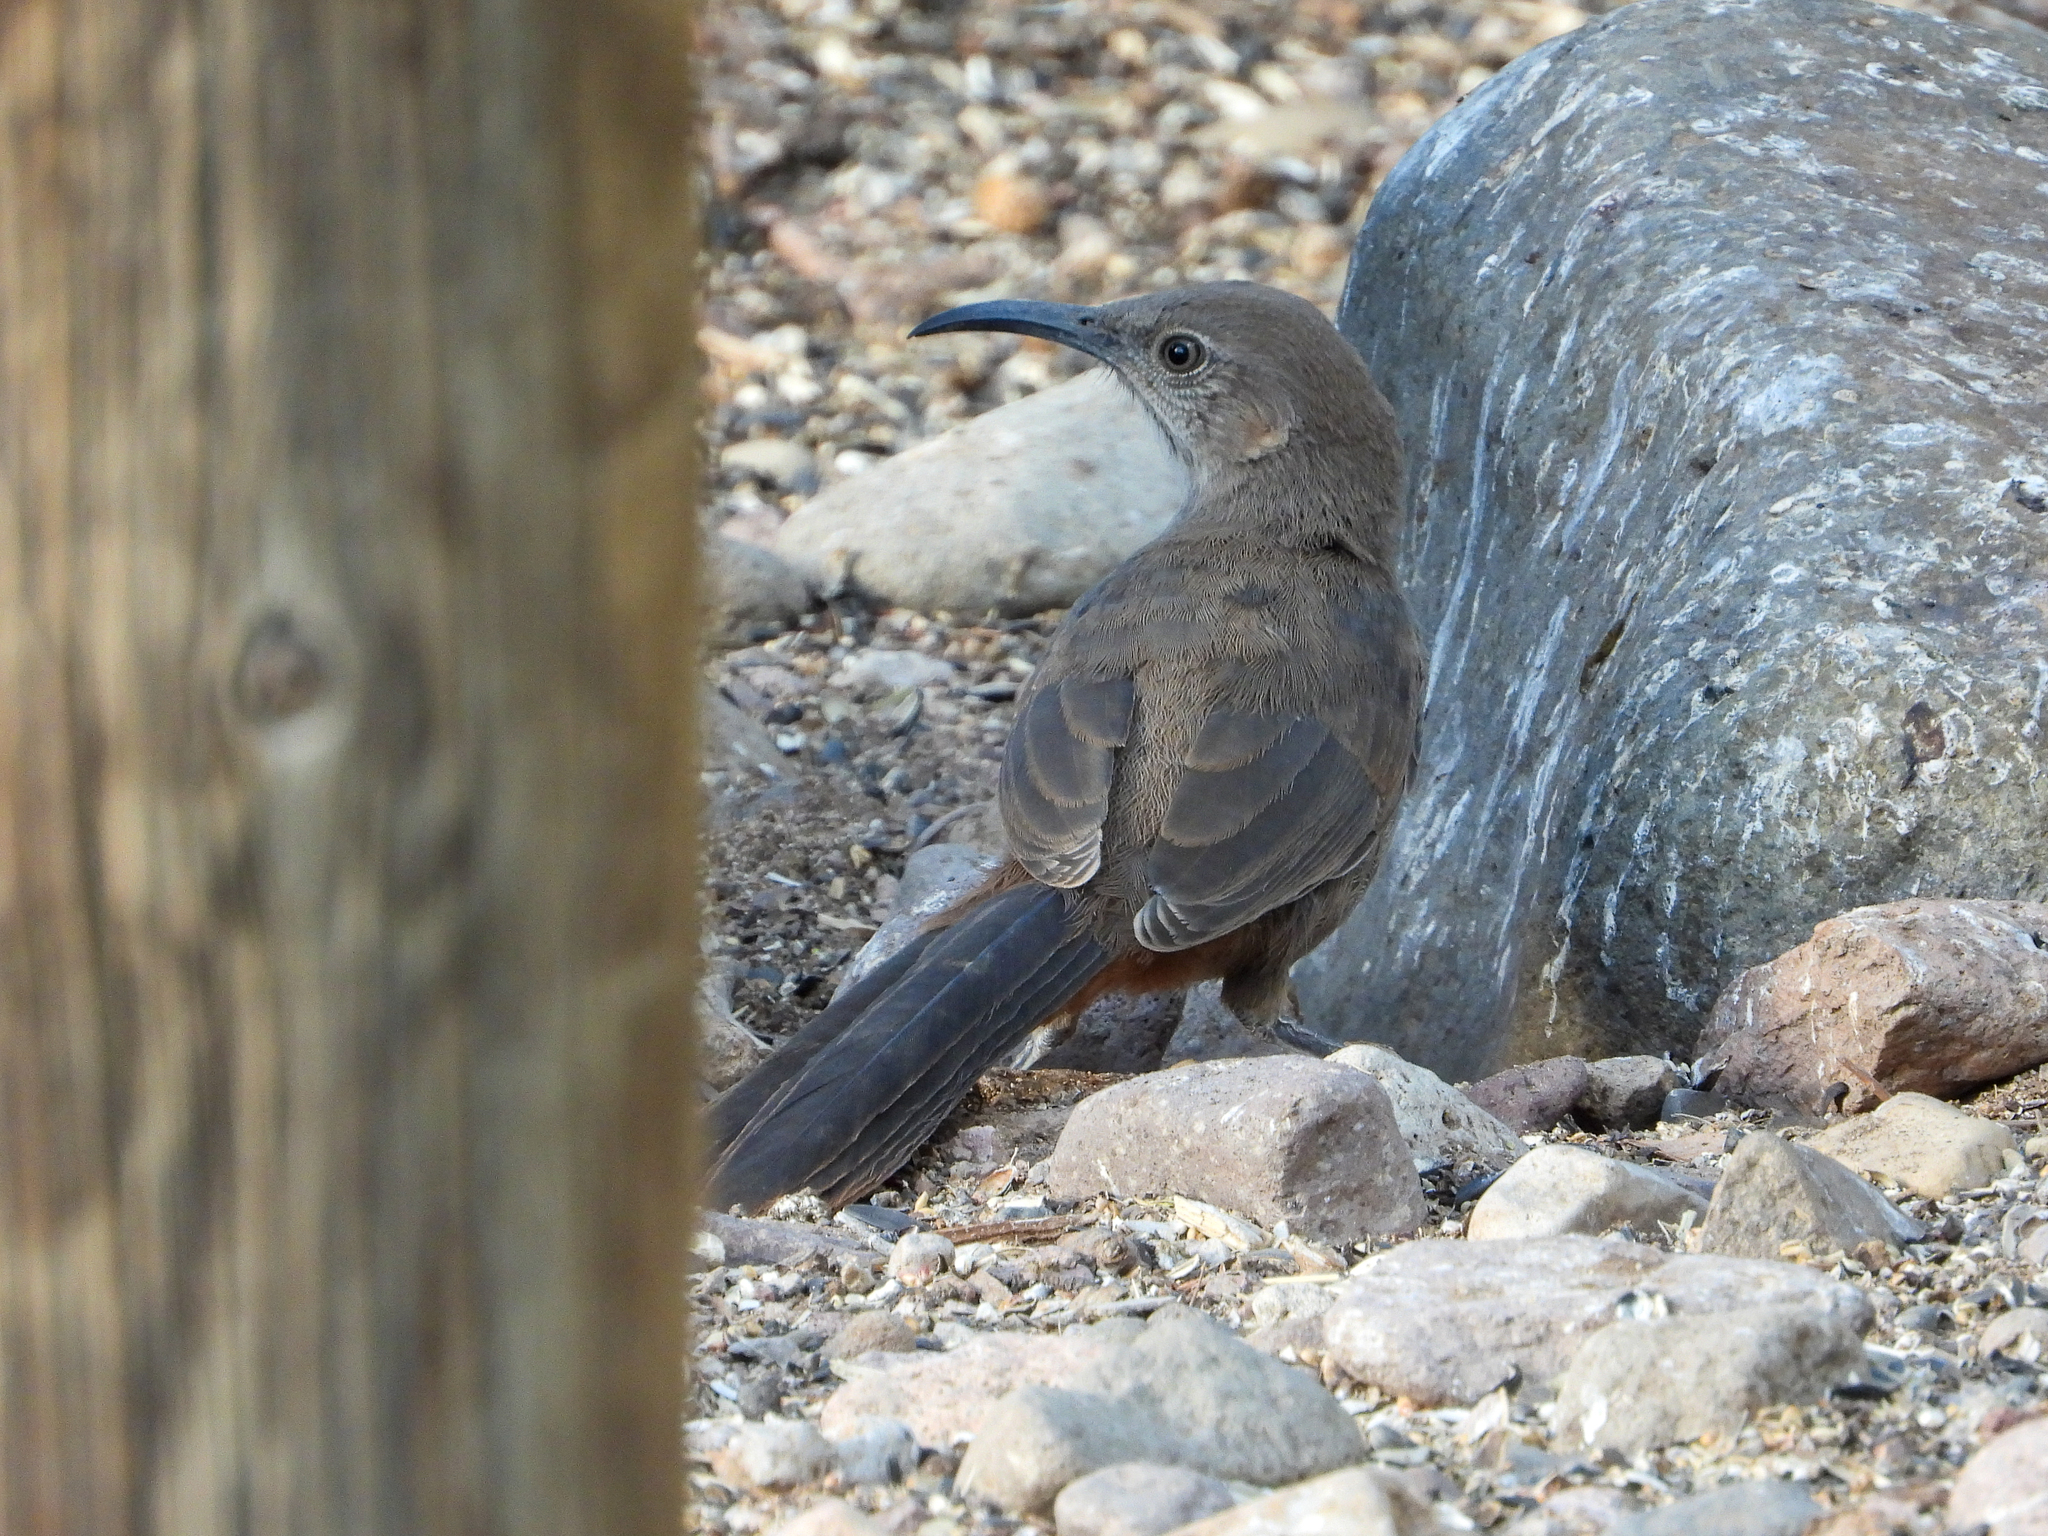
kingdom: Animalia
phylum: Chordata
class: Aves
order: Passeriformes
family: Mimidae
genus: Toxostoma
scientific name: Toxostoma crissale
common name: Crissal thrasher
